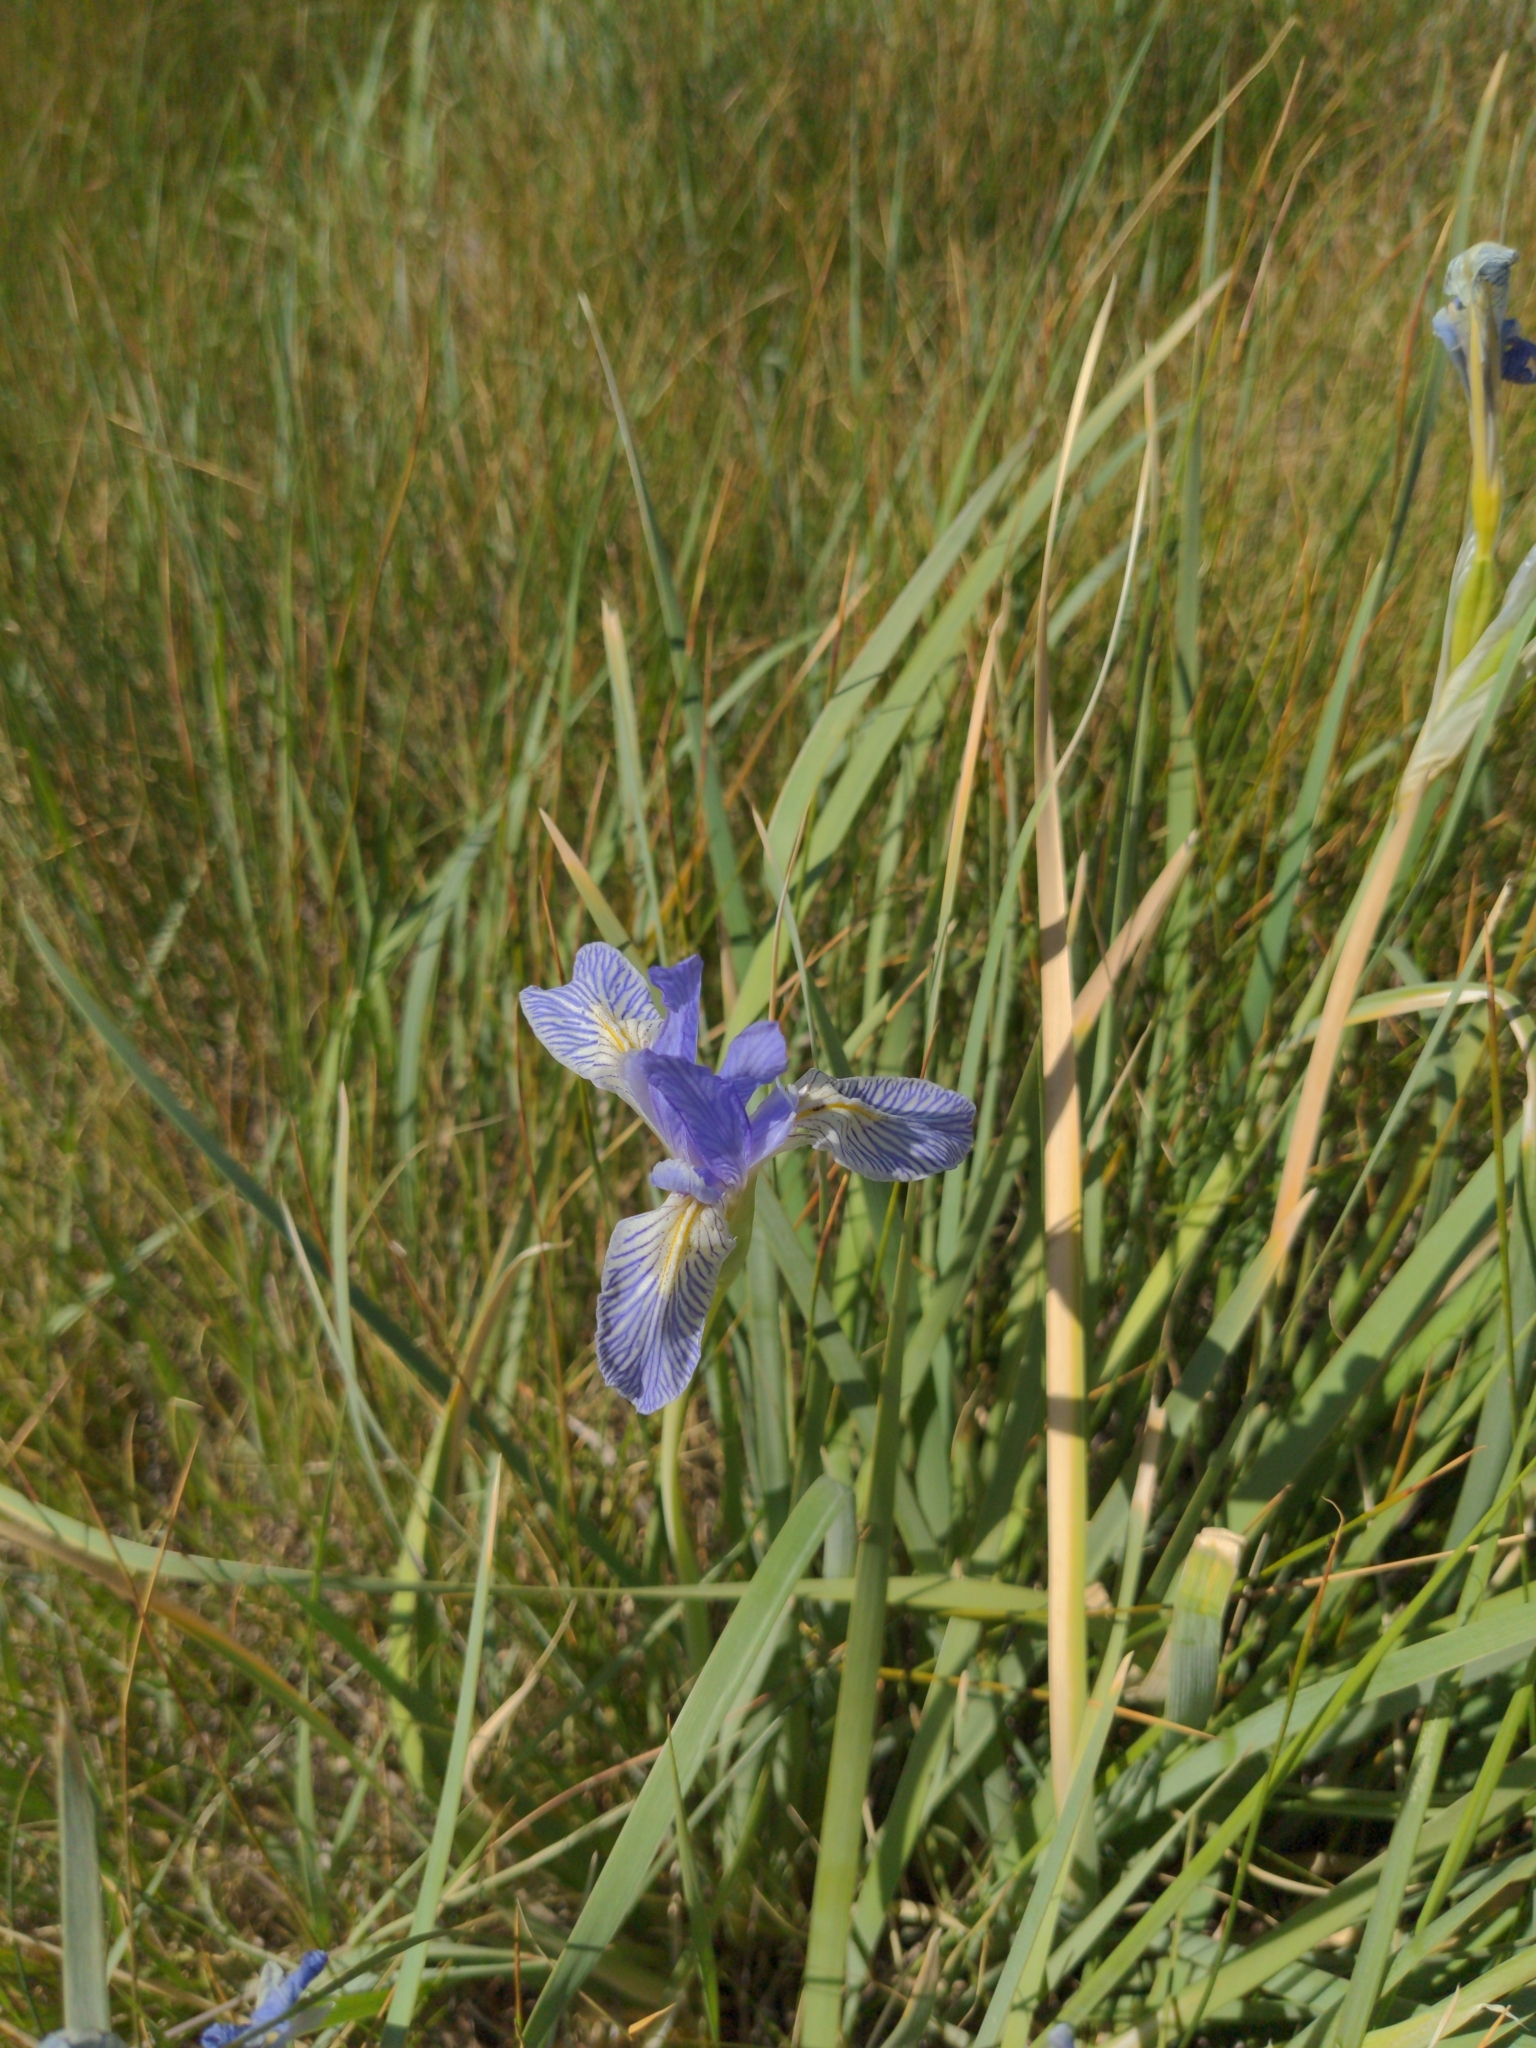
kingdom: Plantae
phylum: Tracheophyta
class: Liliopsida
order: Asparagales
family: Iridaceae
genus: Iris
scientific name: Iris missouriensis
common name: Rocky mountain iris
